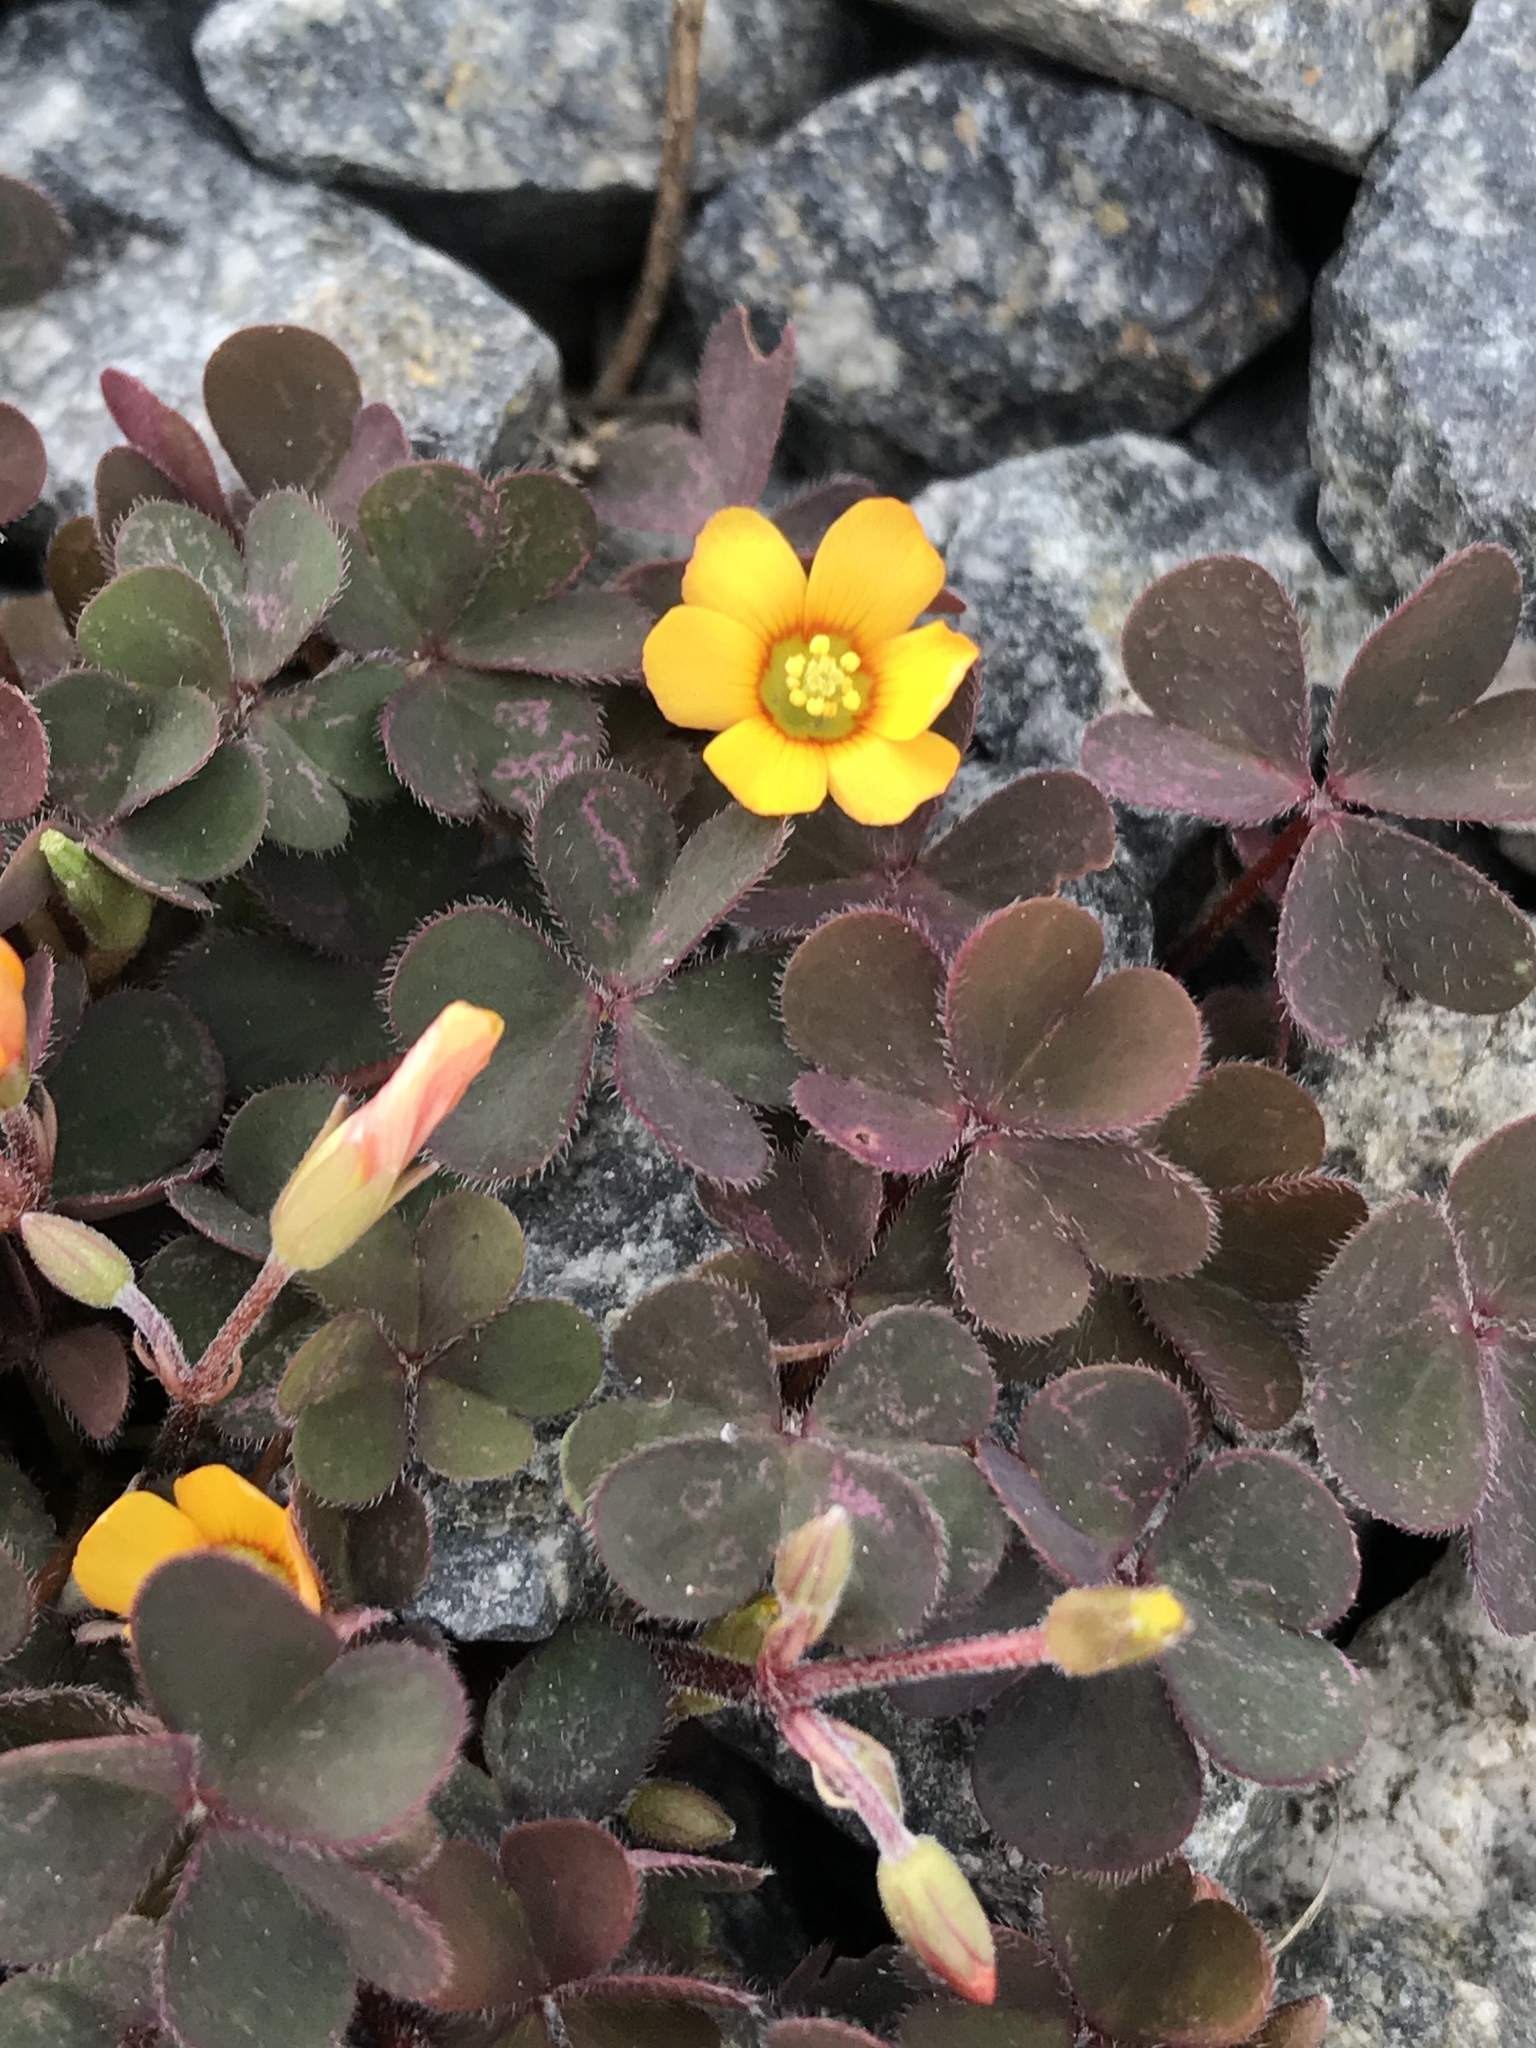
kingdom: Plantae
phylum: Tracheophyta
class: Magnoliopsida
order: Oxalidales
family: Oxalidaceae
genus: Oxalis
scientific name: Oxalis corniculata
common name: Procumbent yellow-sorrel
